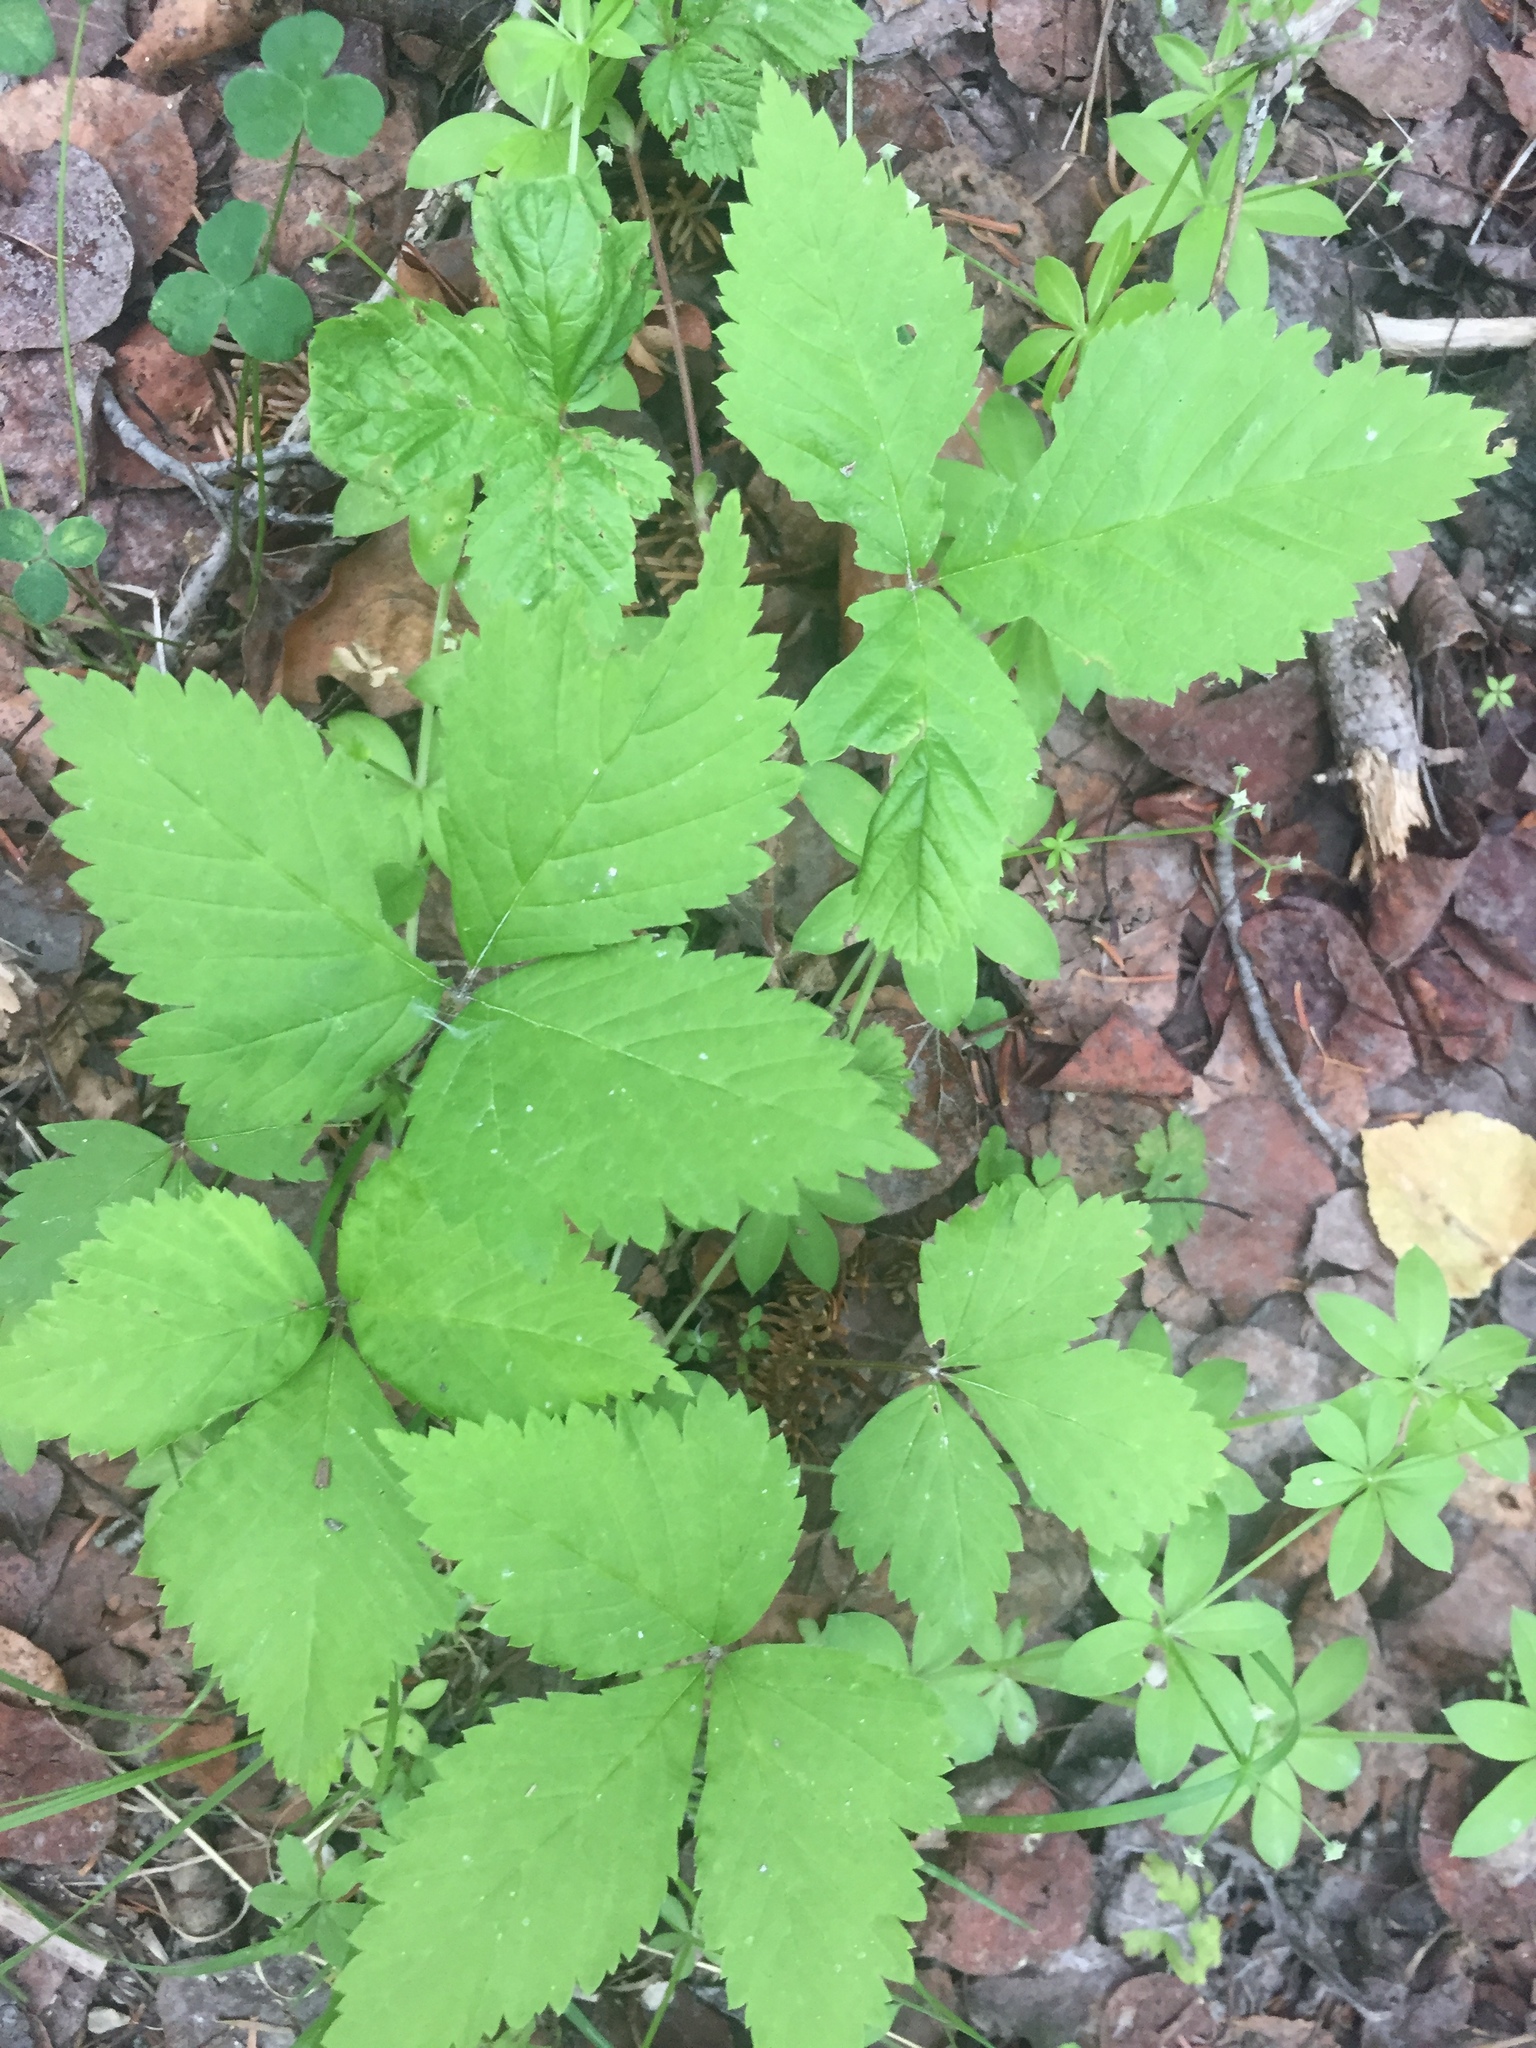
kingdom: Plantae
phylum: Tracheophyta
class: Magnoliopsida
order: Rosales
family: Rosaceae
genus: Rubus
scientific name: Rubus pubescens
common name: Dwarf raspberry
